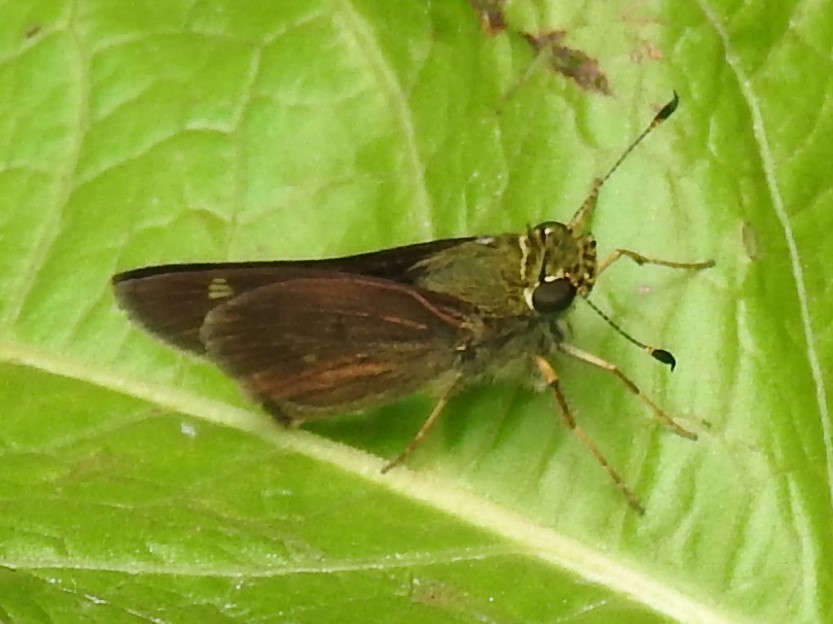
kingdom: Animalia
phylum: Arthropoda
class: Insecta
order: Lepidoptera
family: Hesperiidae
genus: Vernia
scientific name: Vernia verna
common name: Little glassywing
